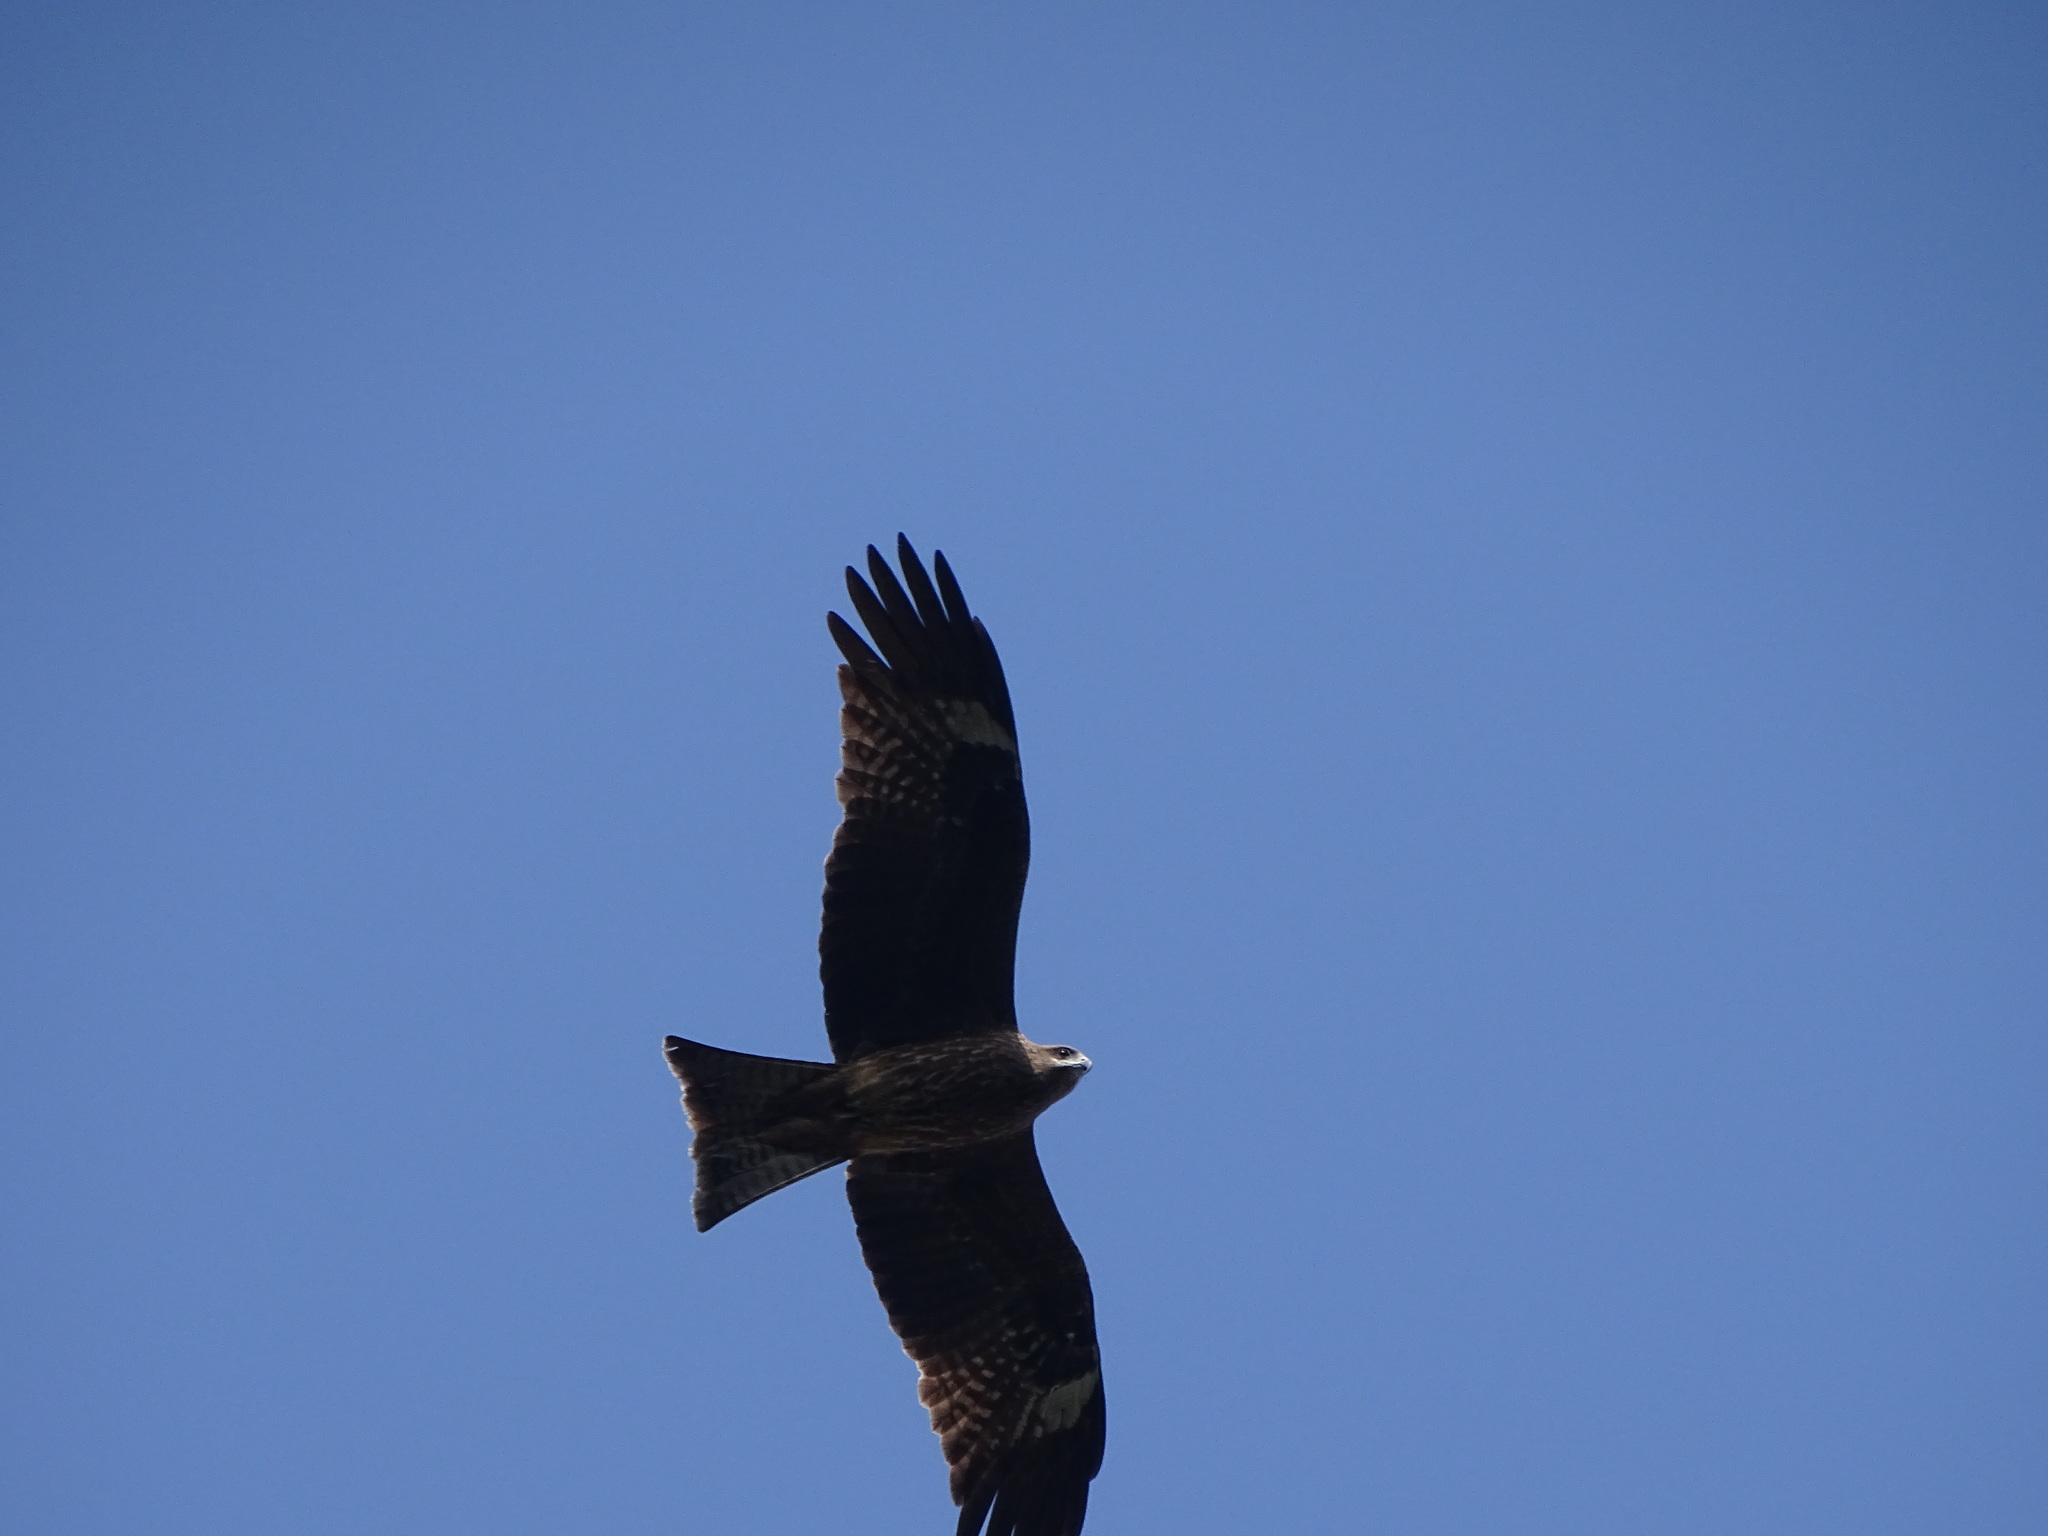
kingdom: Animalia
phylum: Chordata
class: Aves
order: Accipitriformes
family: Accipitridae
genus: Milvus
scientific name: Milvus migrans
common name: Black kite
